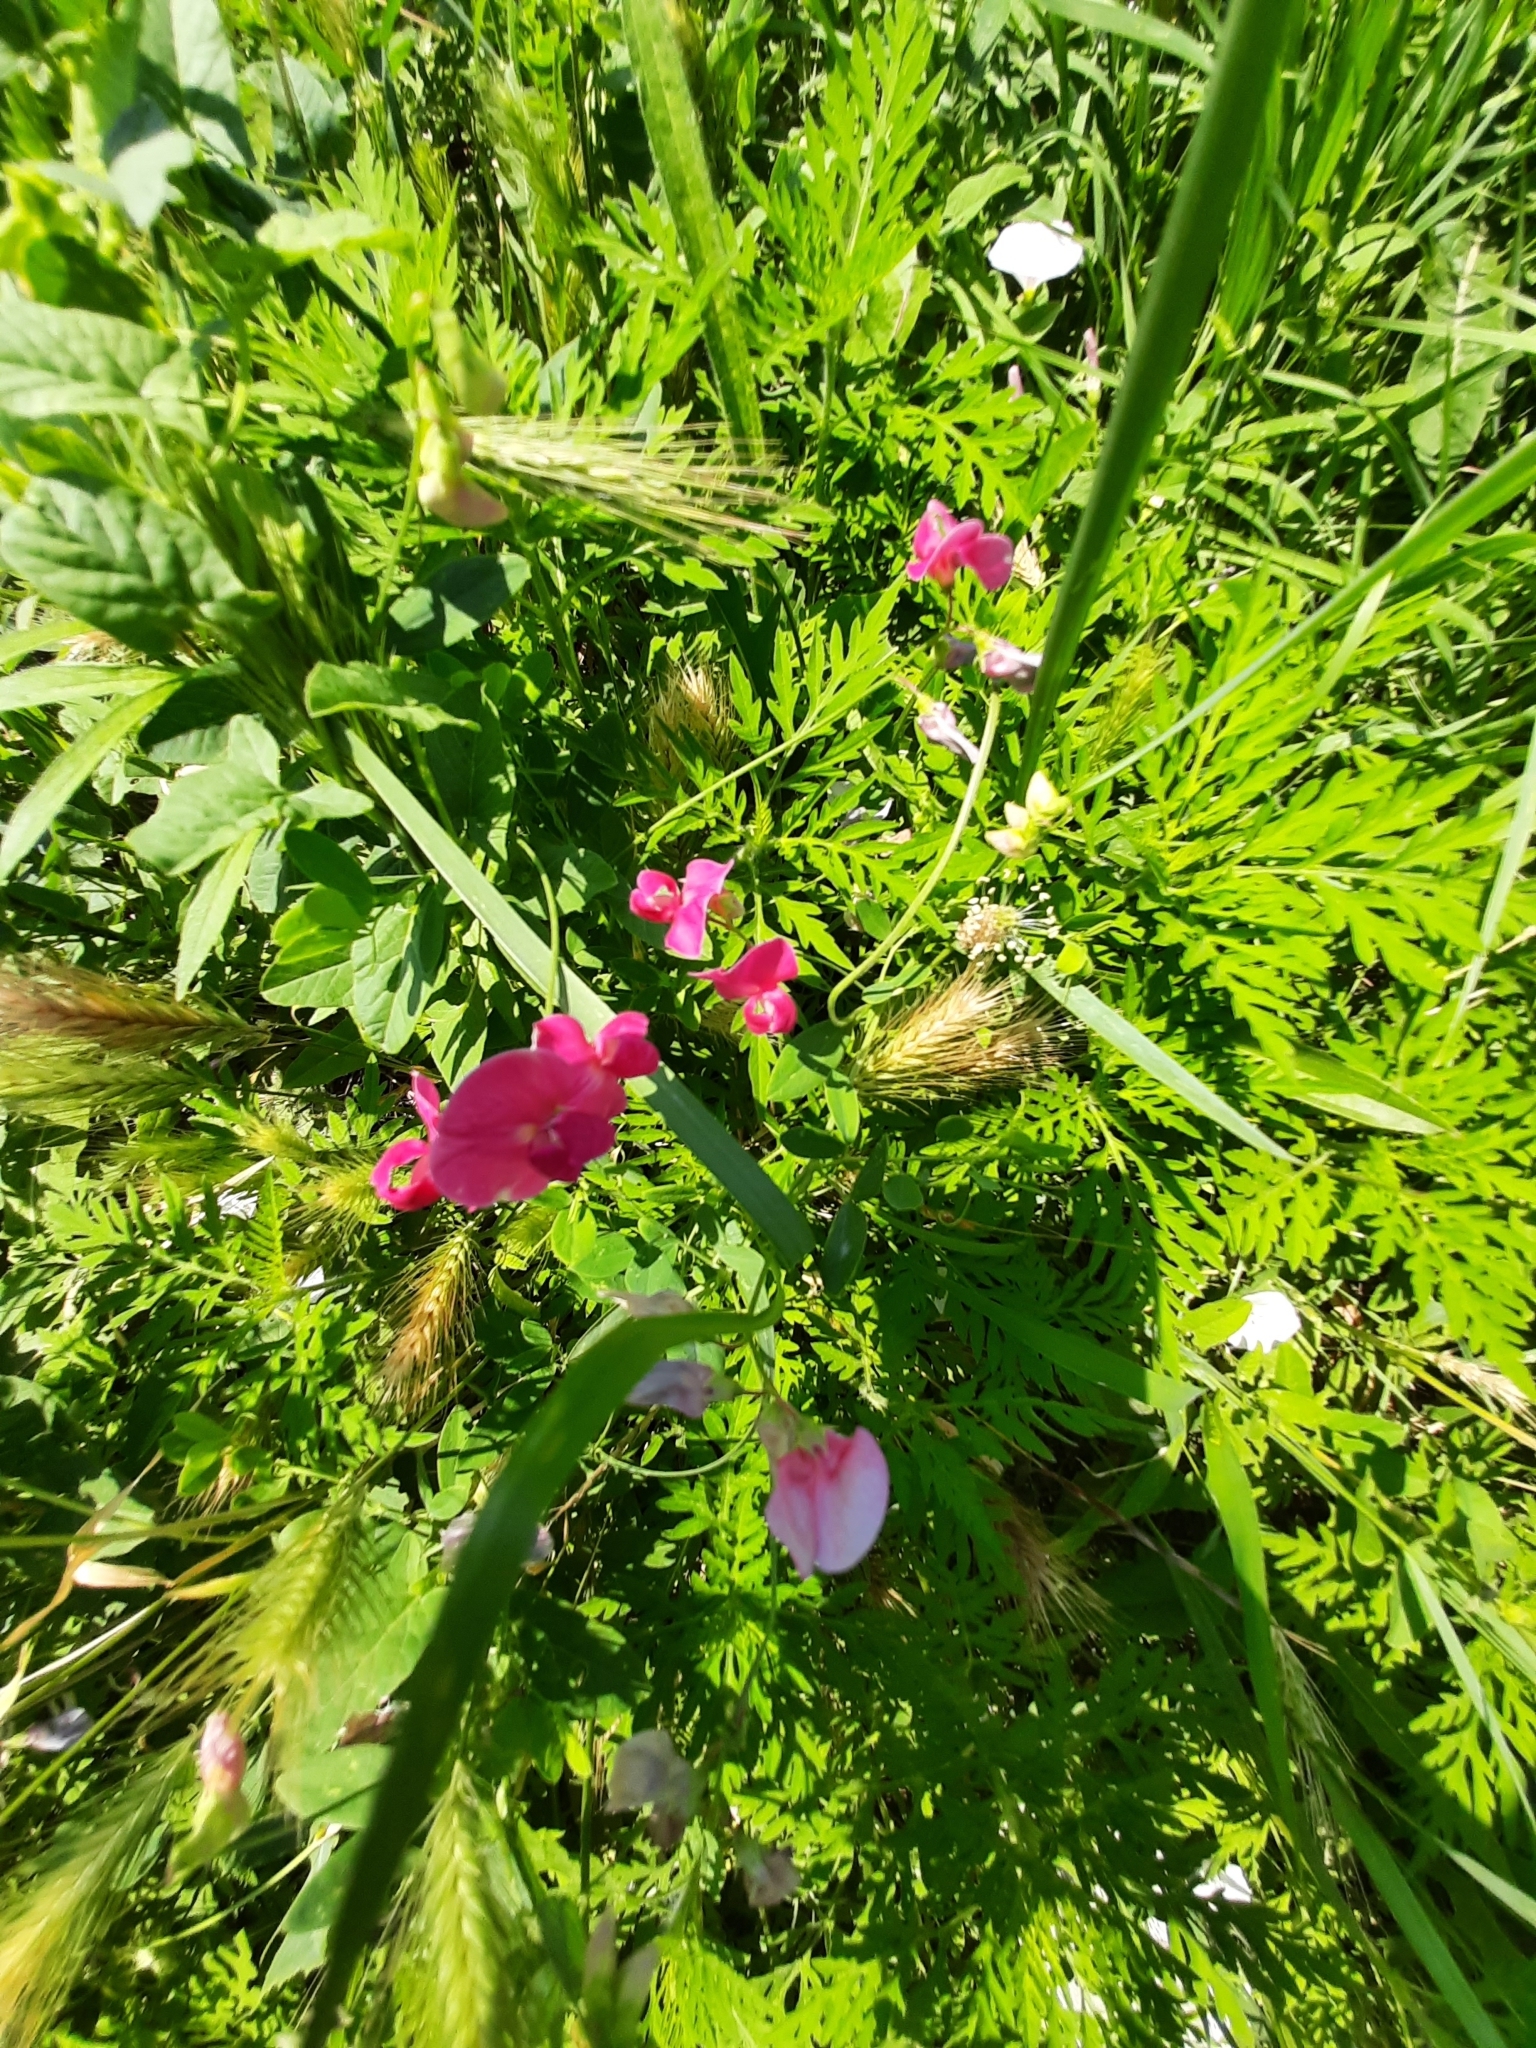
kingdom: Plantae
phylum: Tracheophyta
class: Magnoliopsida
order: Fabales
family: Fabaceae
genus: Lathyrus
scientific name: Lathyrus tuberosus
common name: Tuberous pea
